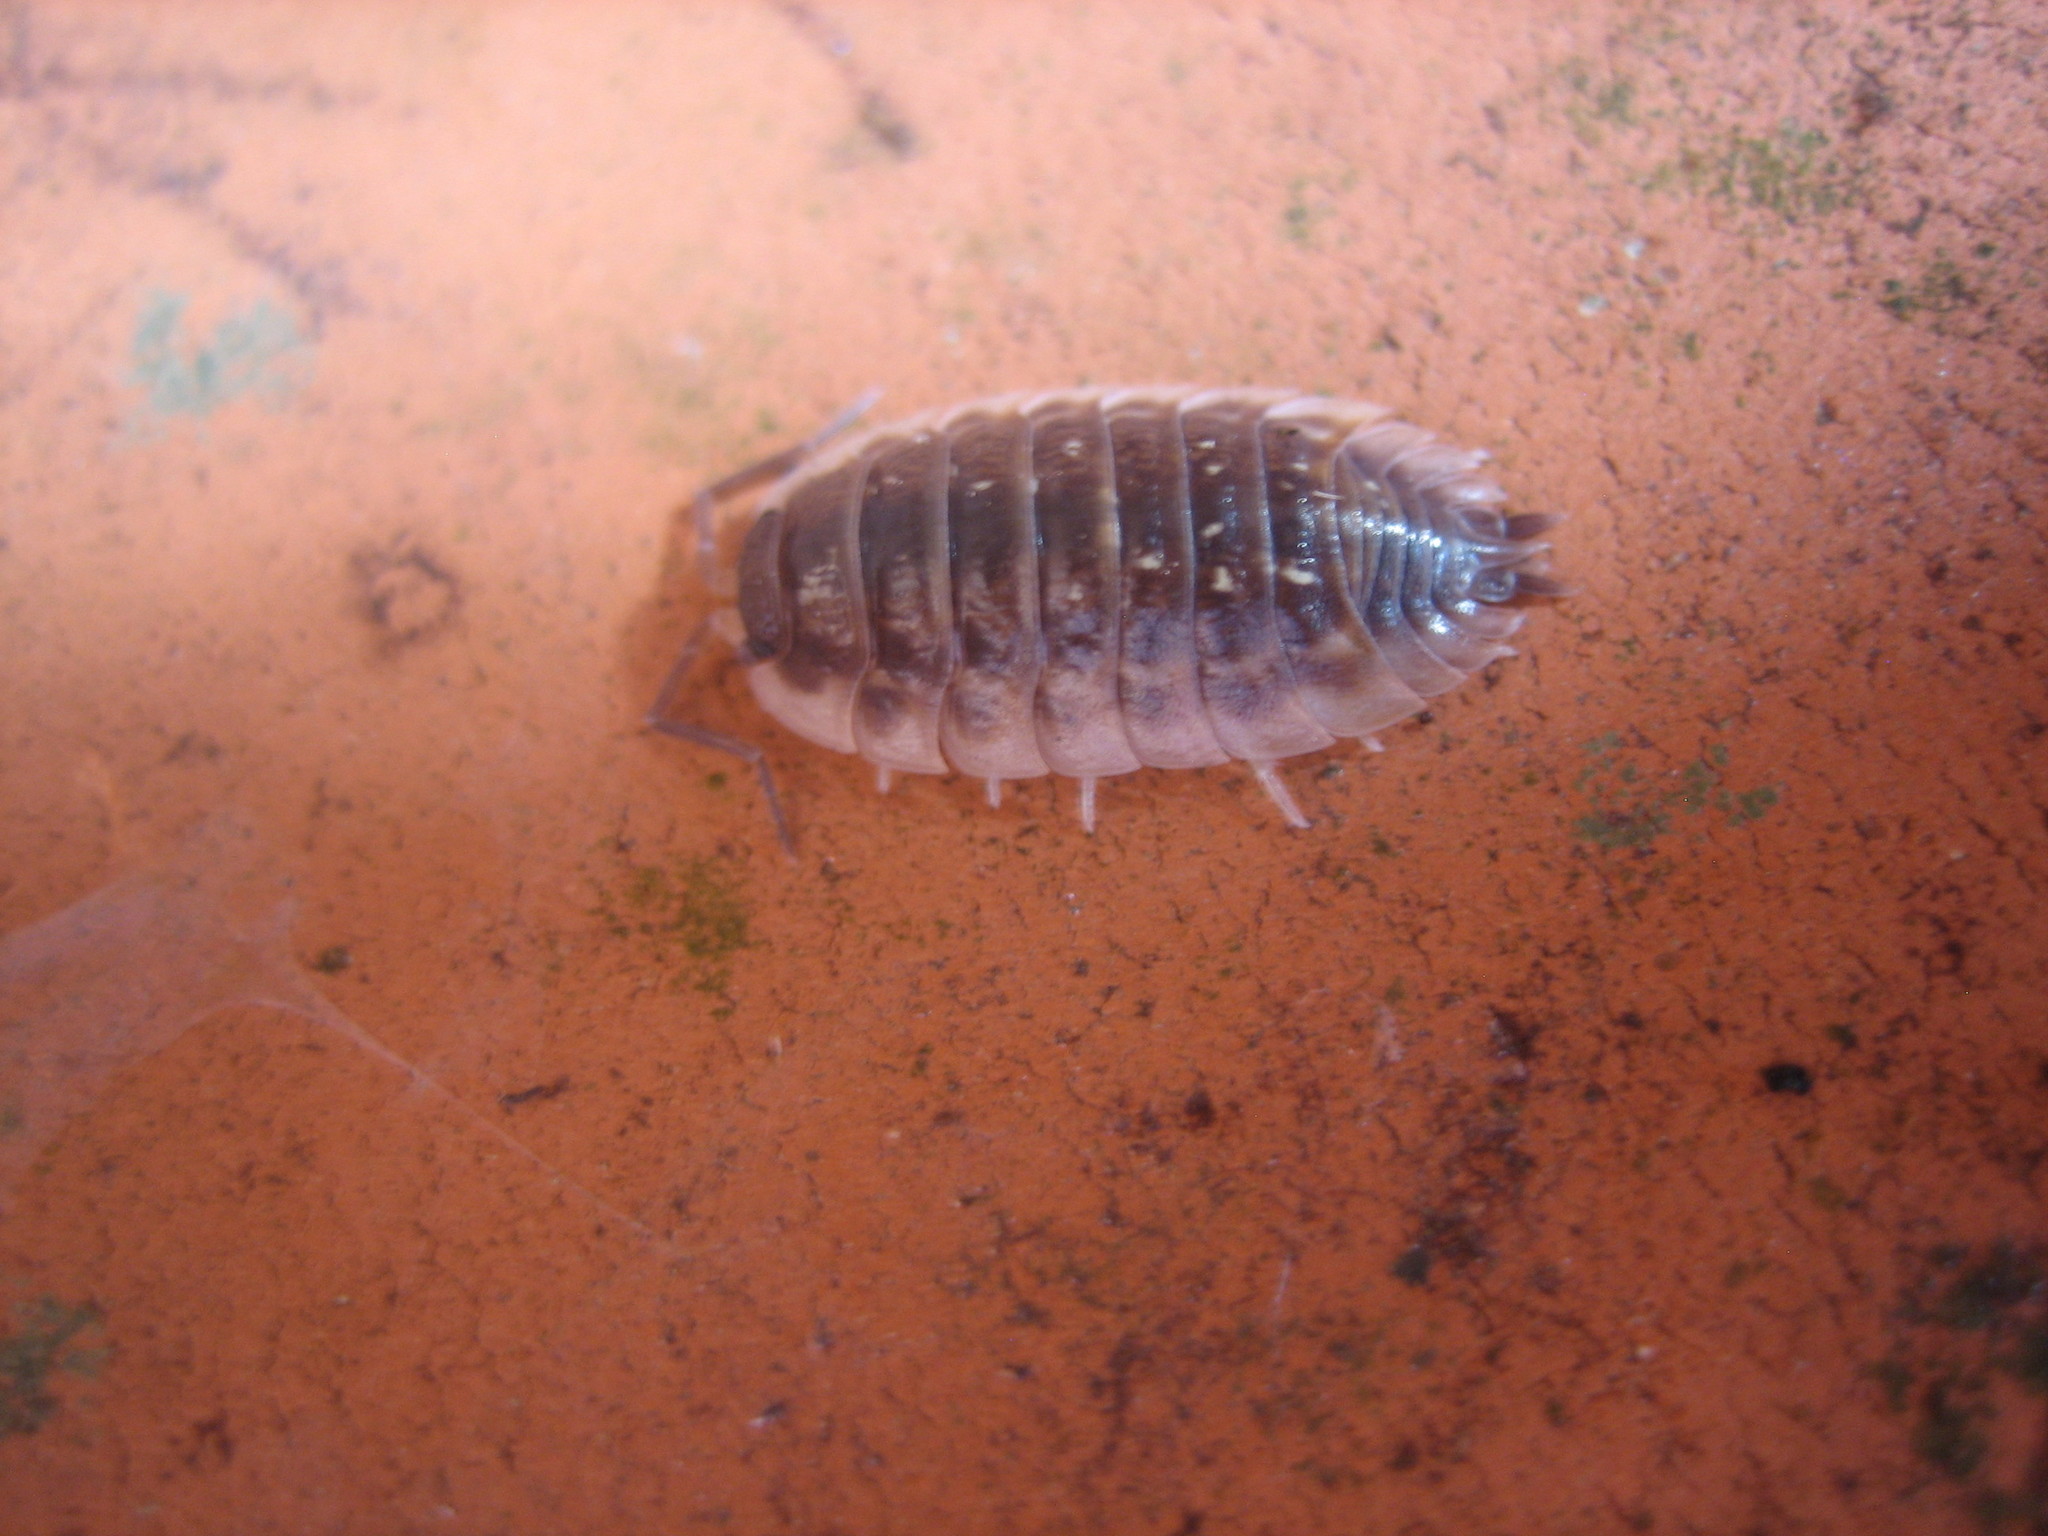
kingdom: Animalia
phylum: Arthropoda
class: Malacostraca
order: Isopoda
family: Oniscidae
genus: Oniscus
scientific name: Oniscus asellus
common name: Common shiny woodlouse
